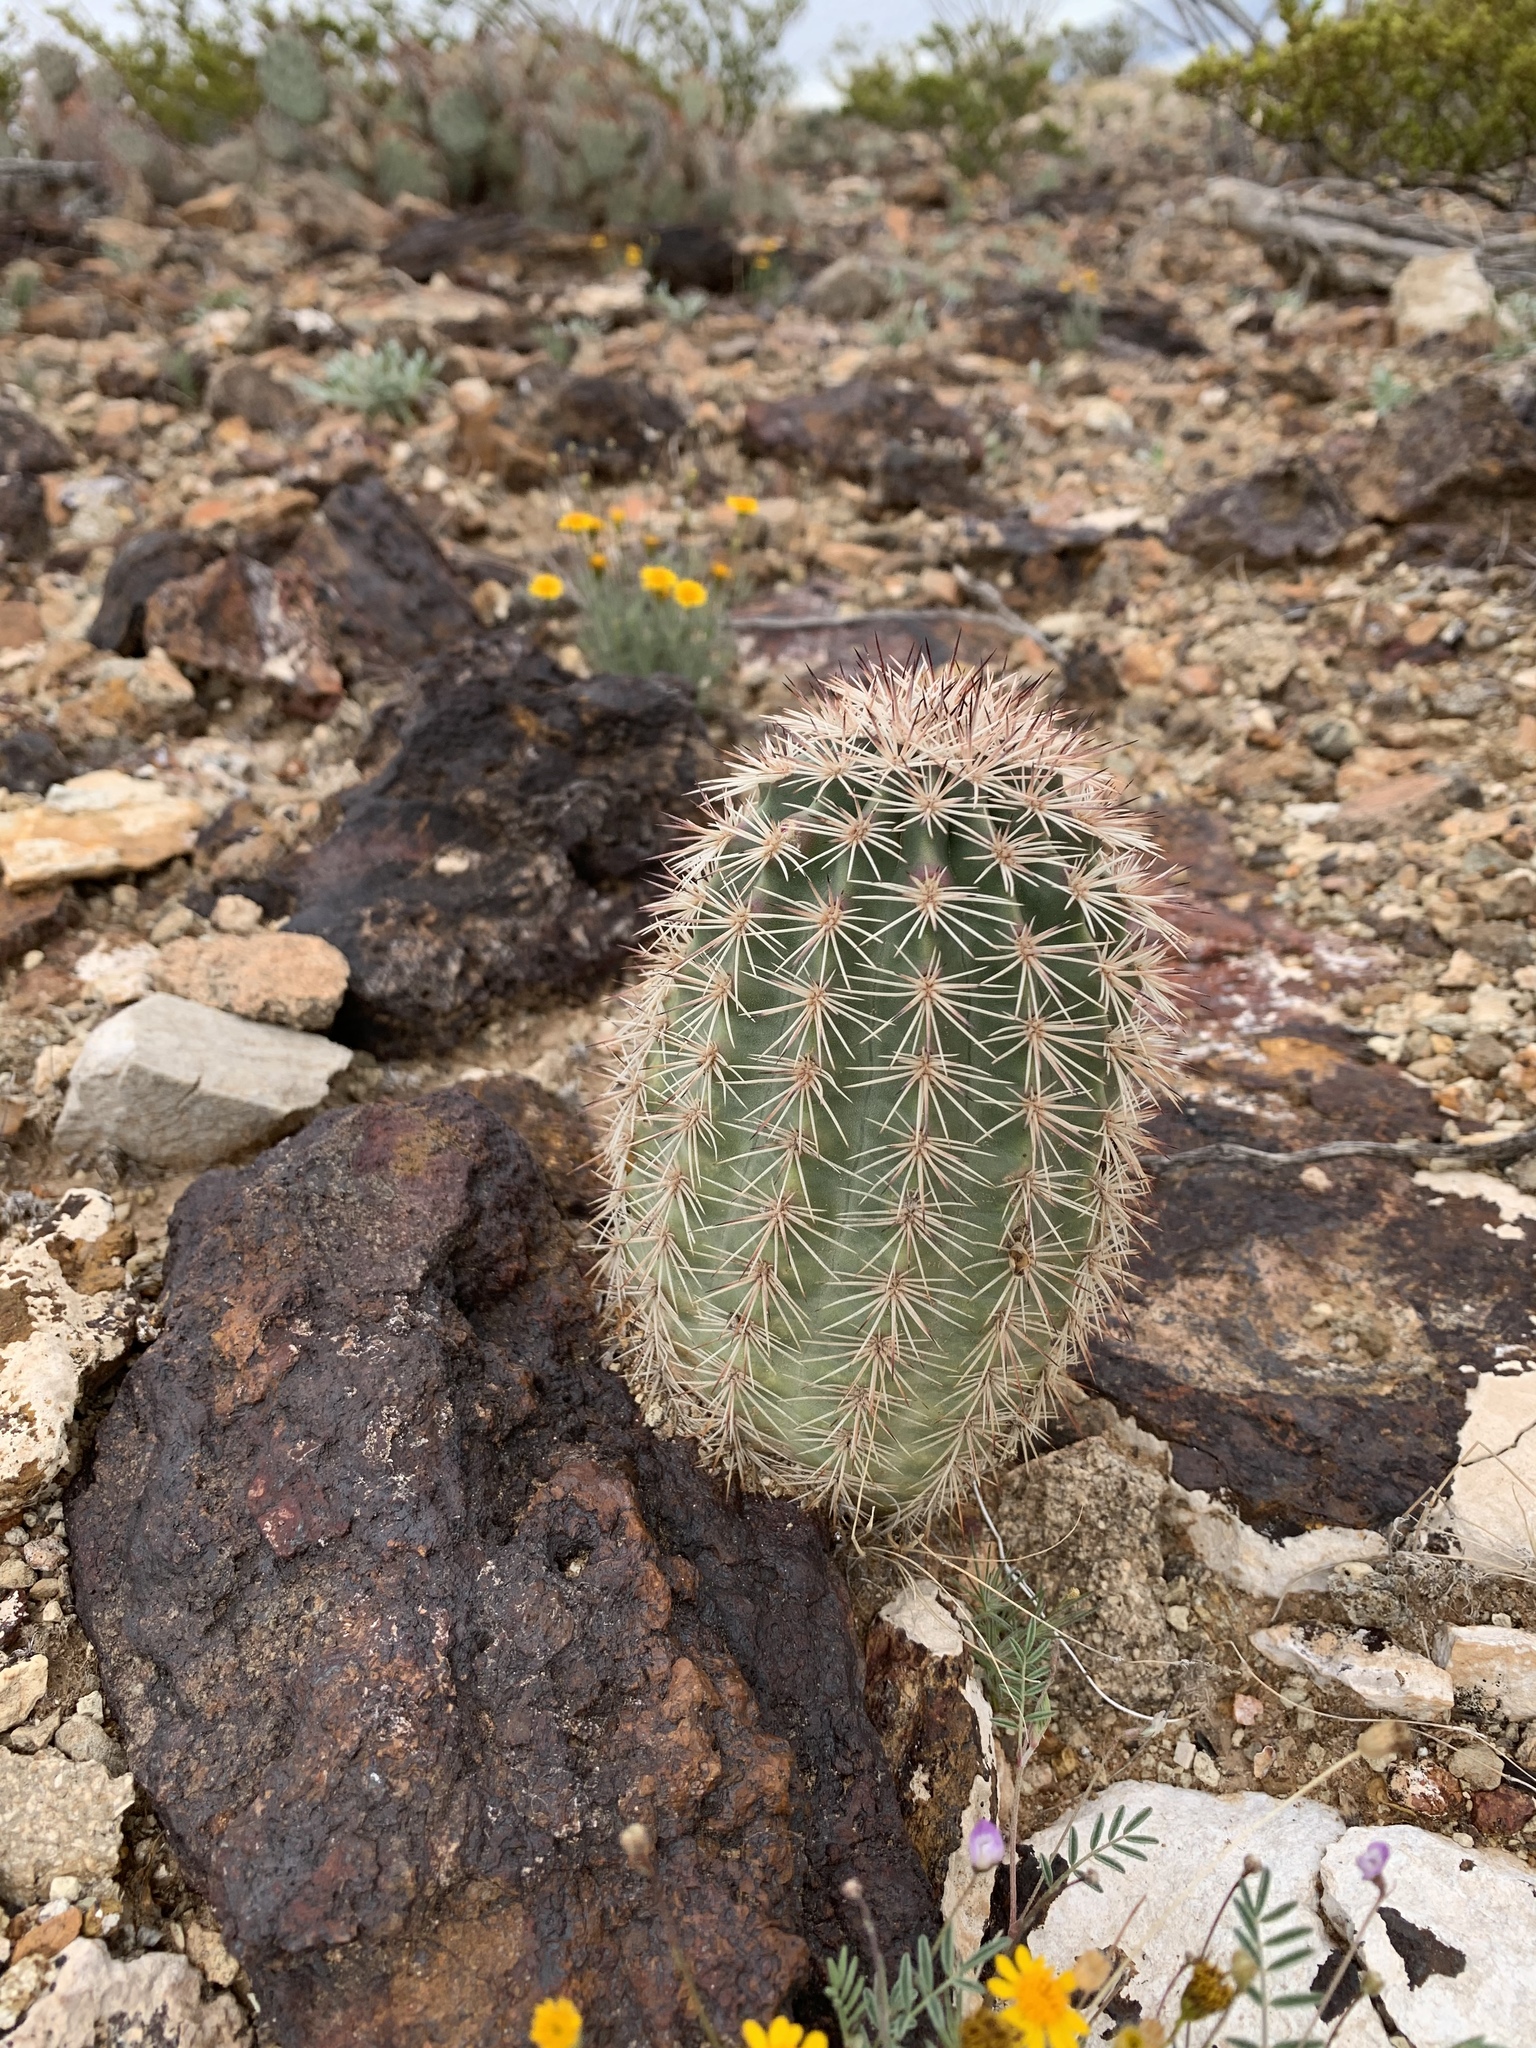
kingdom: Plantae
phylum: Tracheophyta
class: Magnoliopsida
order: Caryophyllales
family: Cactaceae
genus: Echinocereus
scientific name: Echinocereus dasyacanthus
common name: Spiny hedgehog cactus
